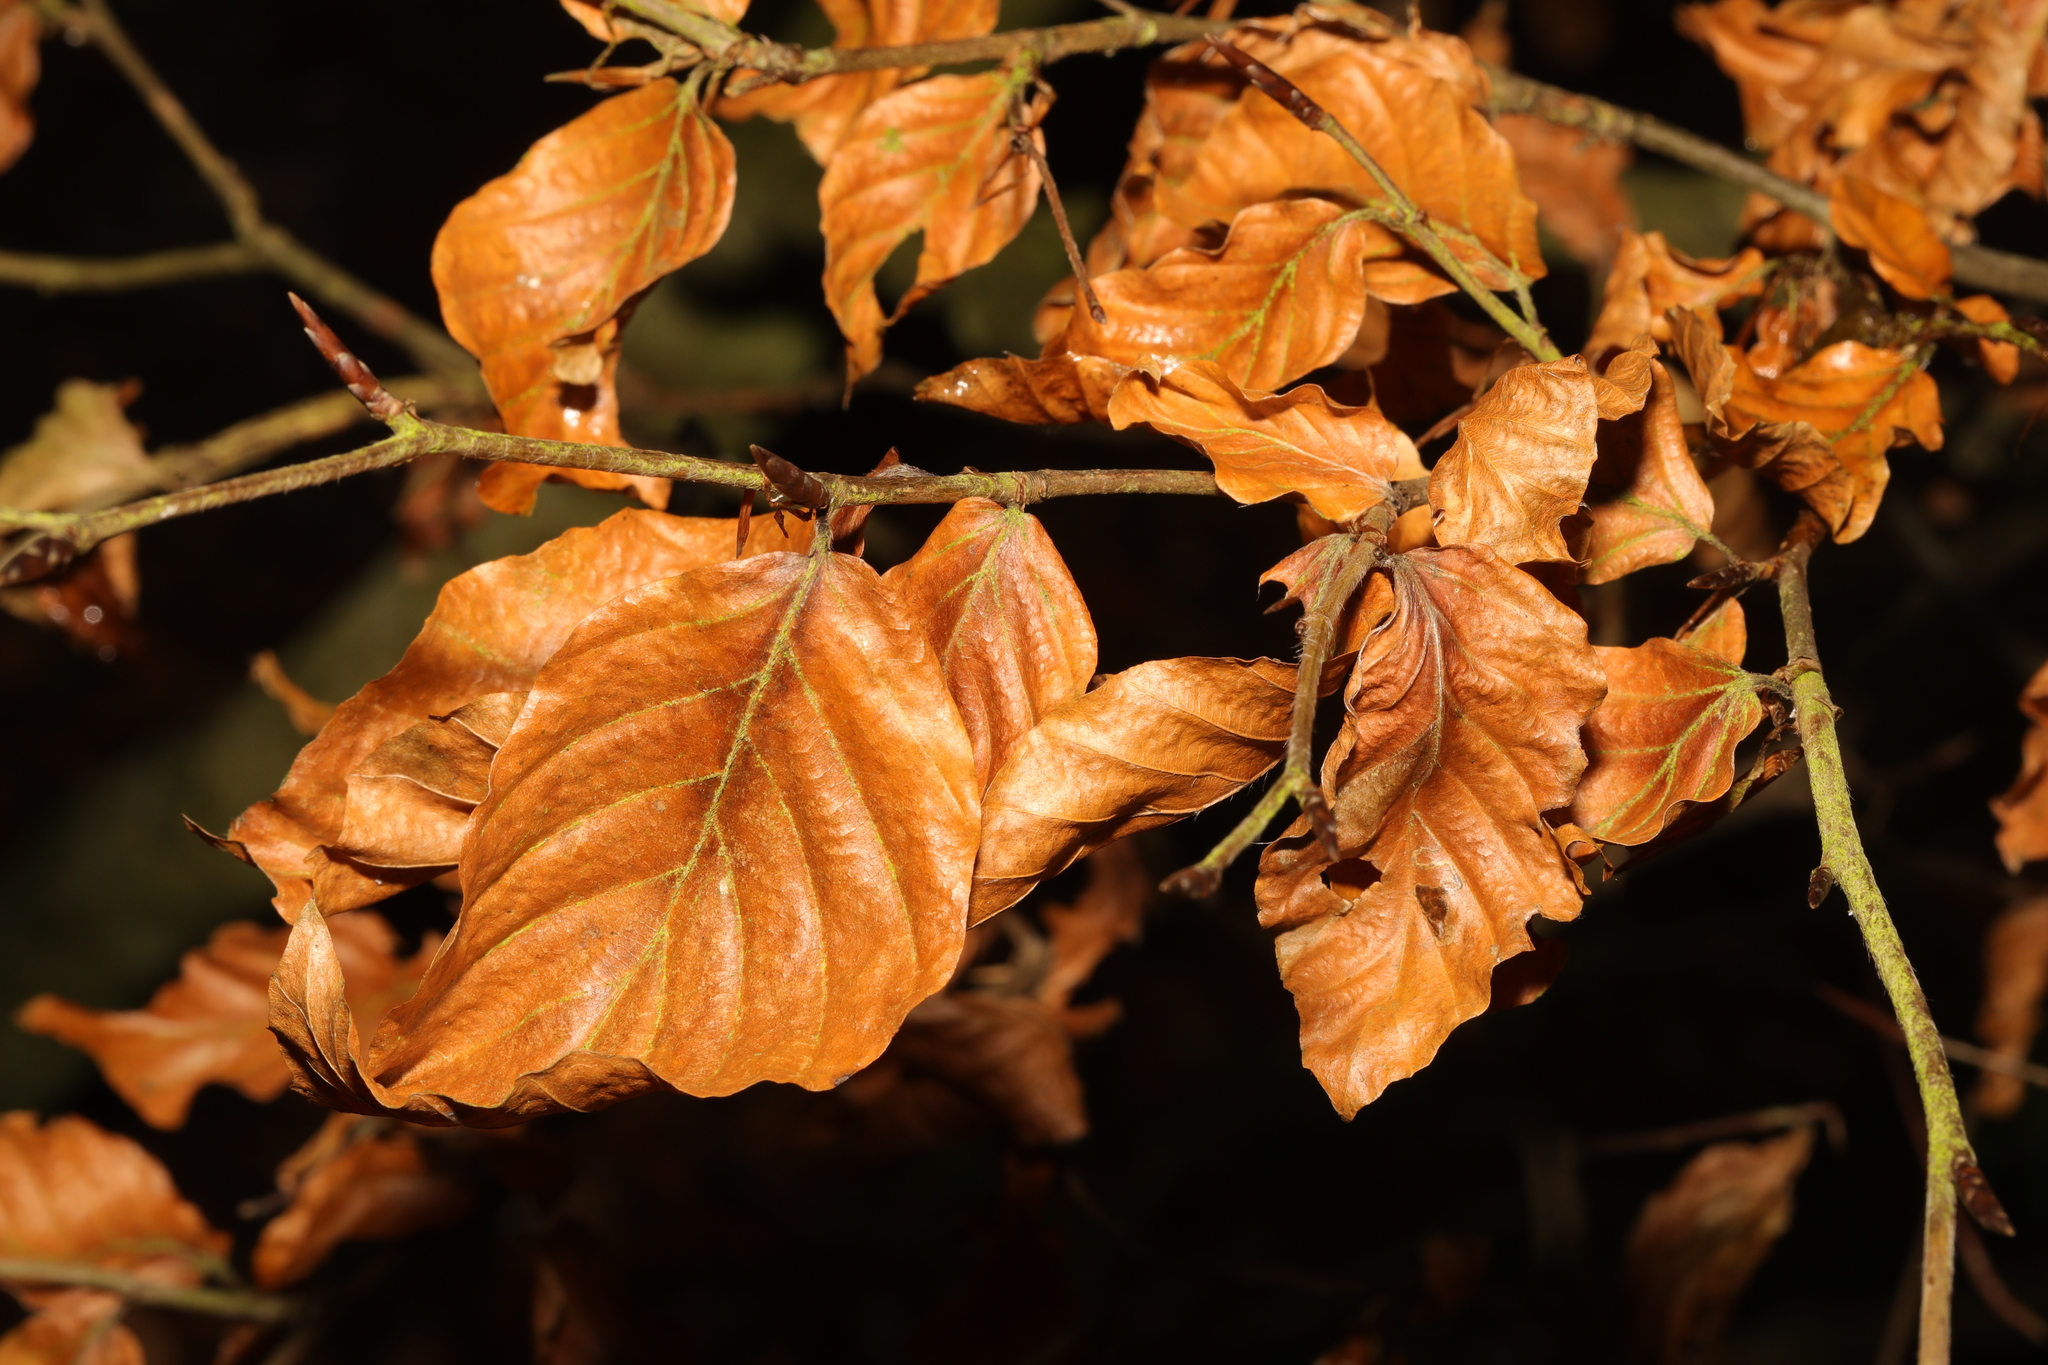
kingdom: Plantae
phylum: Tracheophyta
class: Magnoliopsida
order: Fagales
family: Fagaceae
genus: Fagus
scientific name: Fagus sylvatica
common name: Beech
